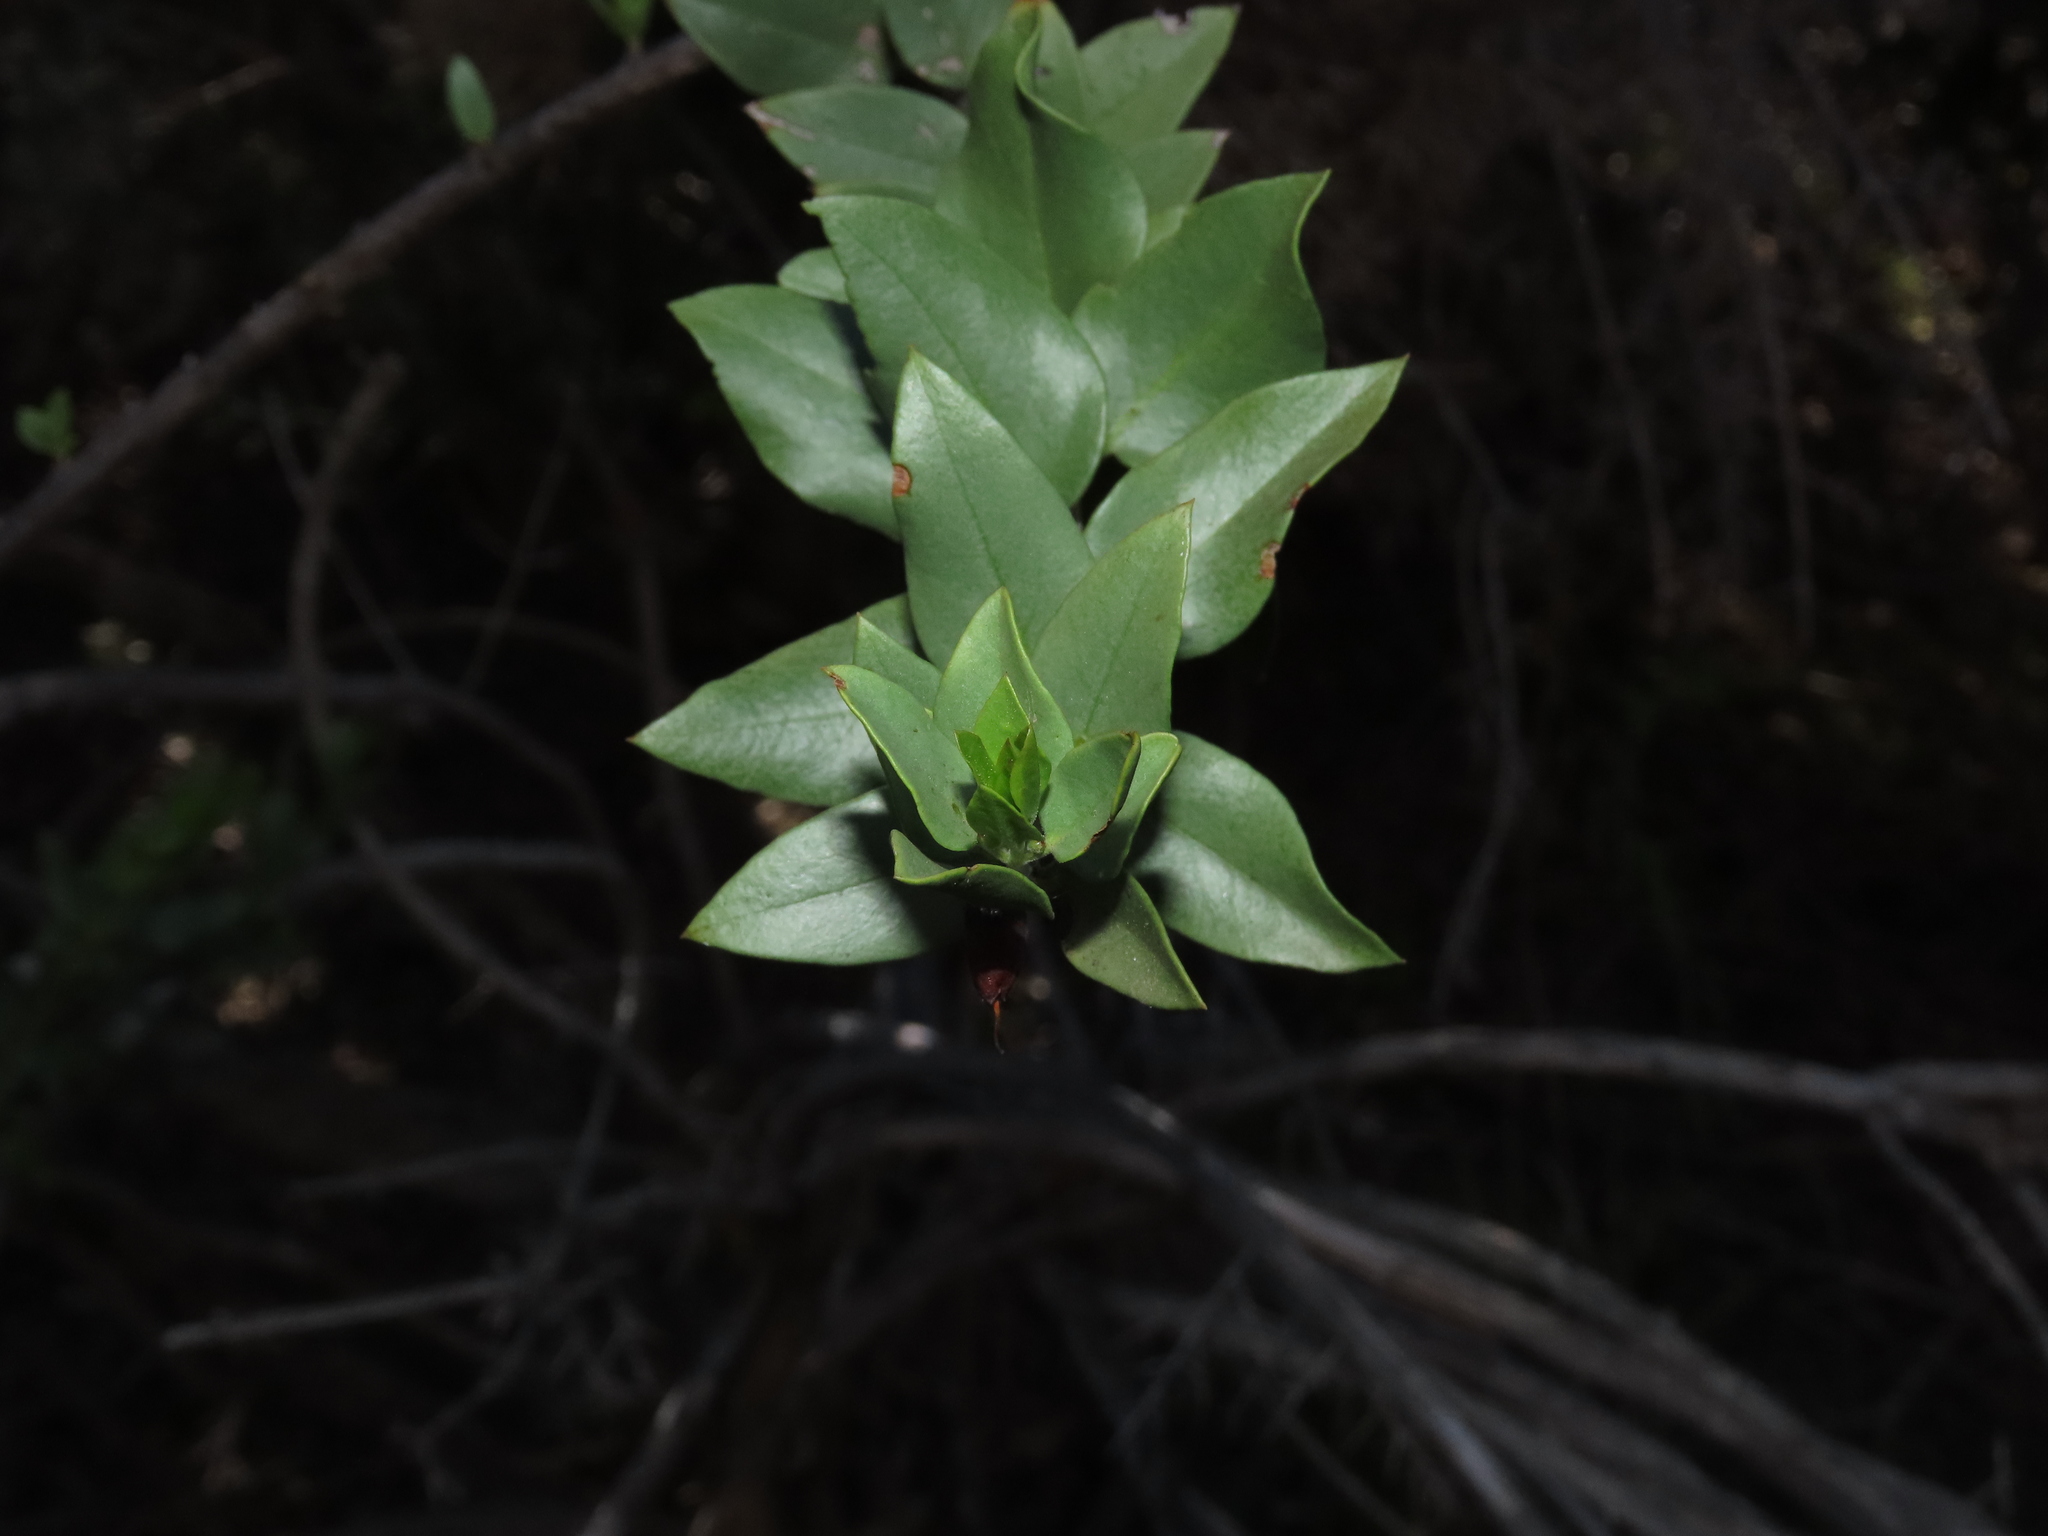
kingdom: Plantae
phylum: Tracheophyta
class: Magnoliopsida
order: Lamiales
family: Plantaginaceae
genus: Monttea
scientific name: Monttea chilensis
